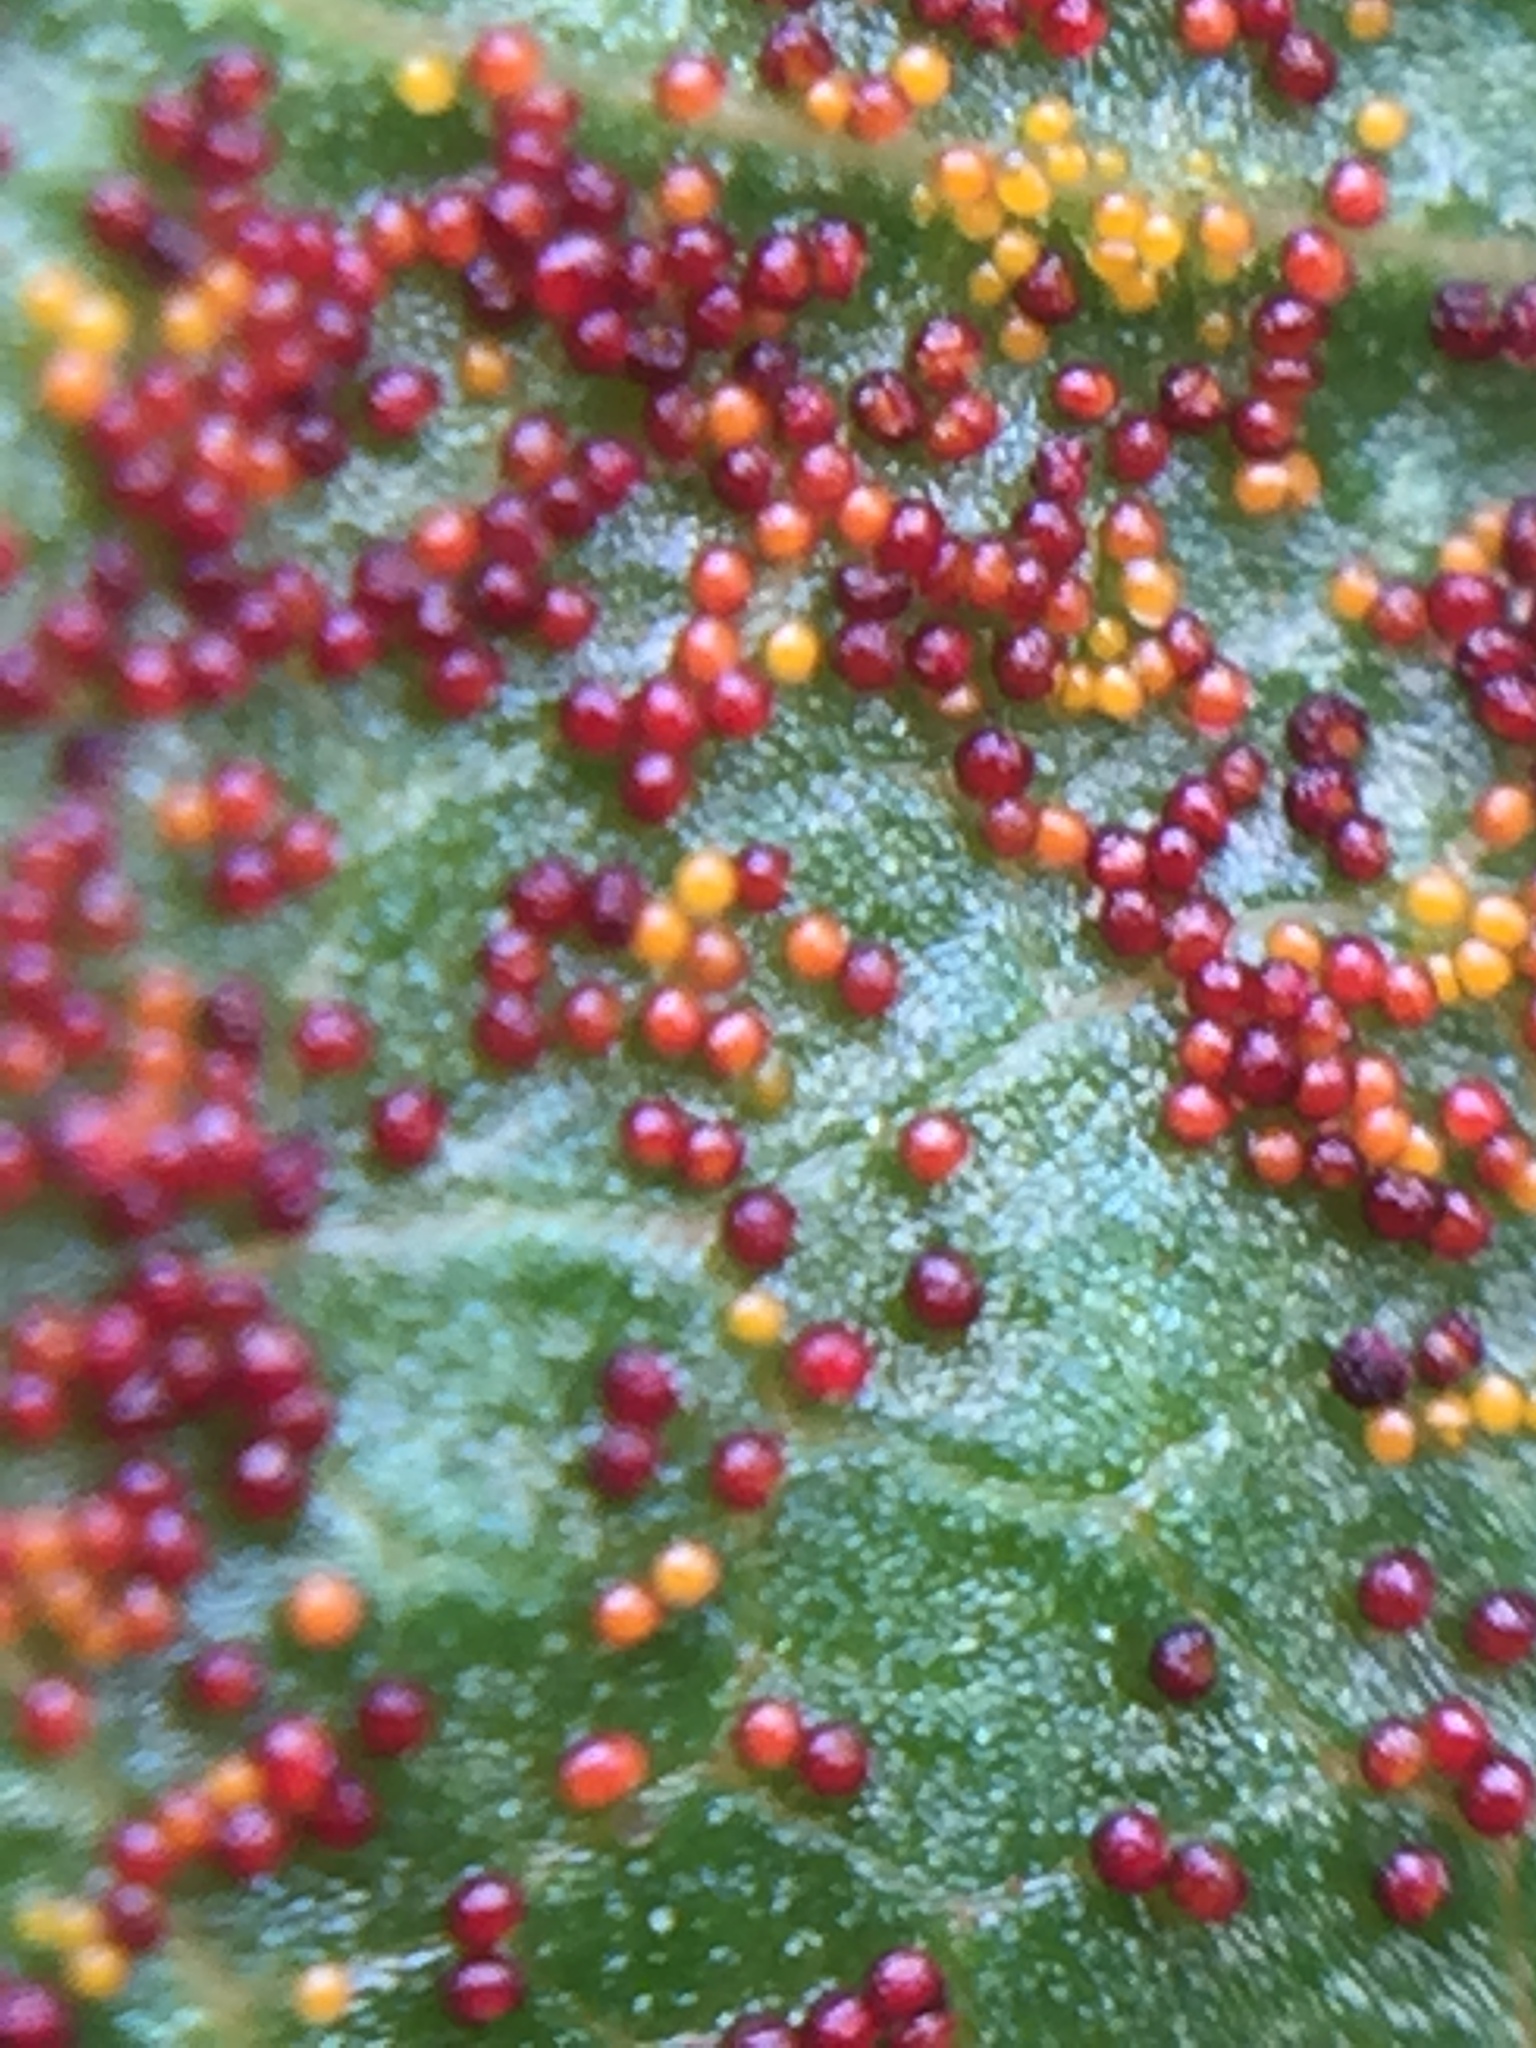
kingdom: Fungi
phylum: Chytridiomycota
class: Chytridiomycetes
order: Chytridiales
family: Synchytriaceae
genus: Synchytrium
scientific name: Synchytrium australe
